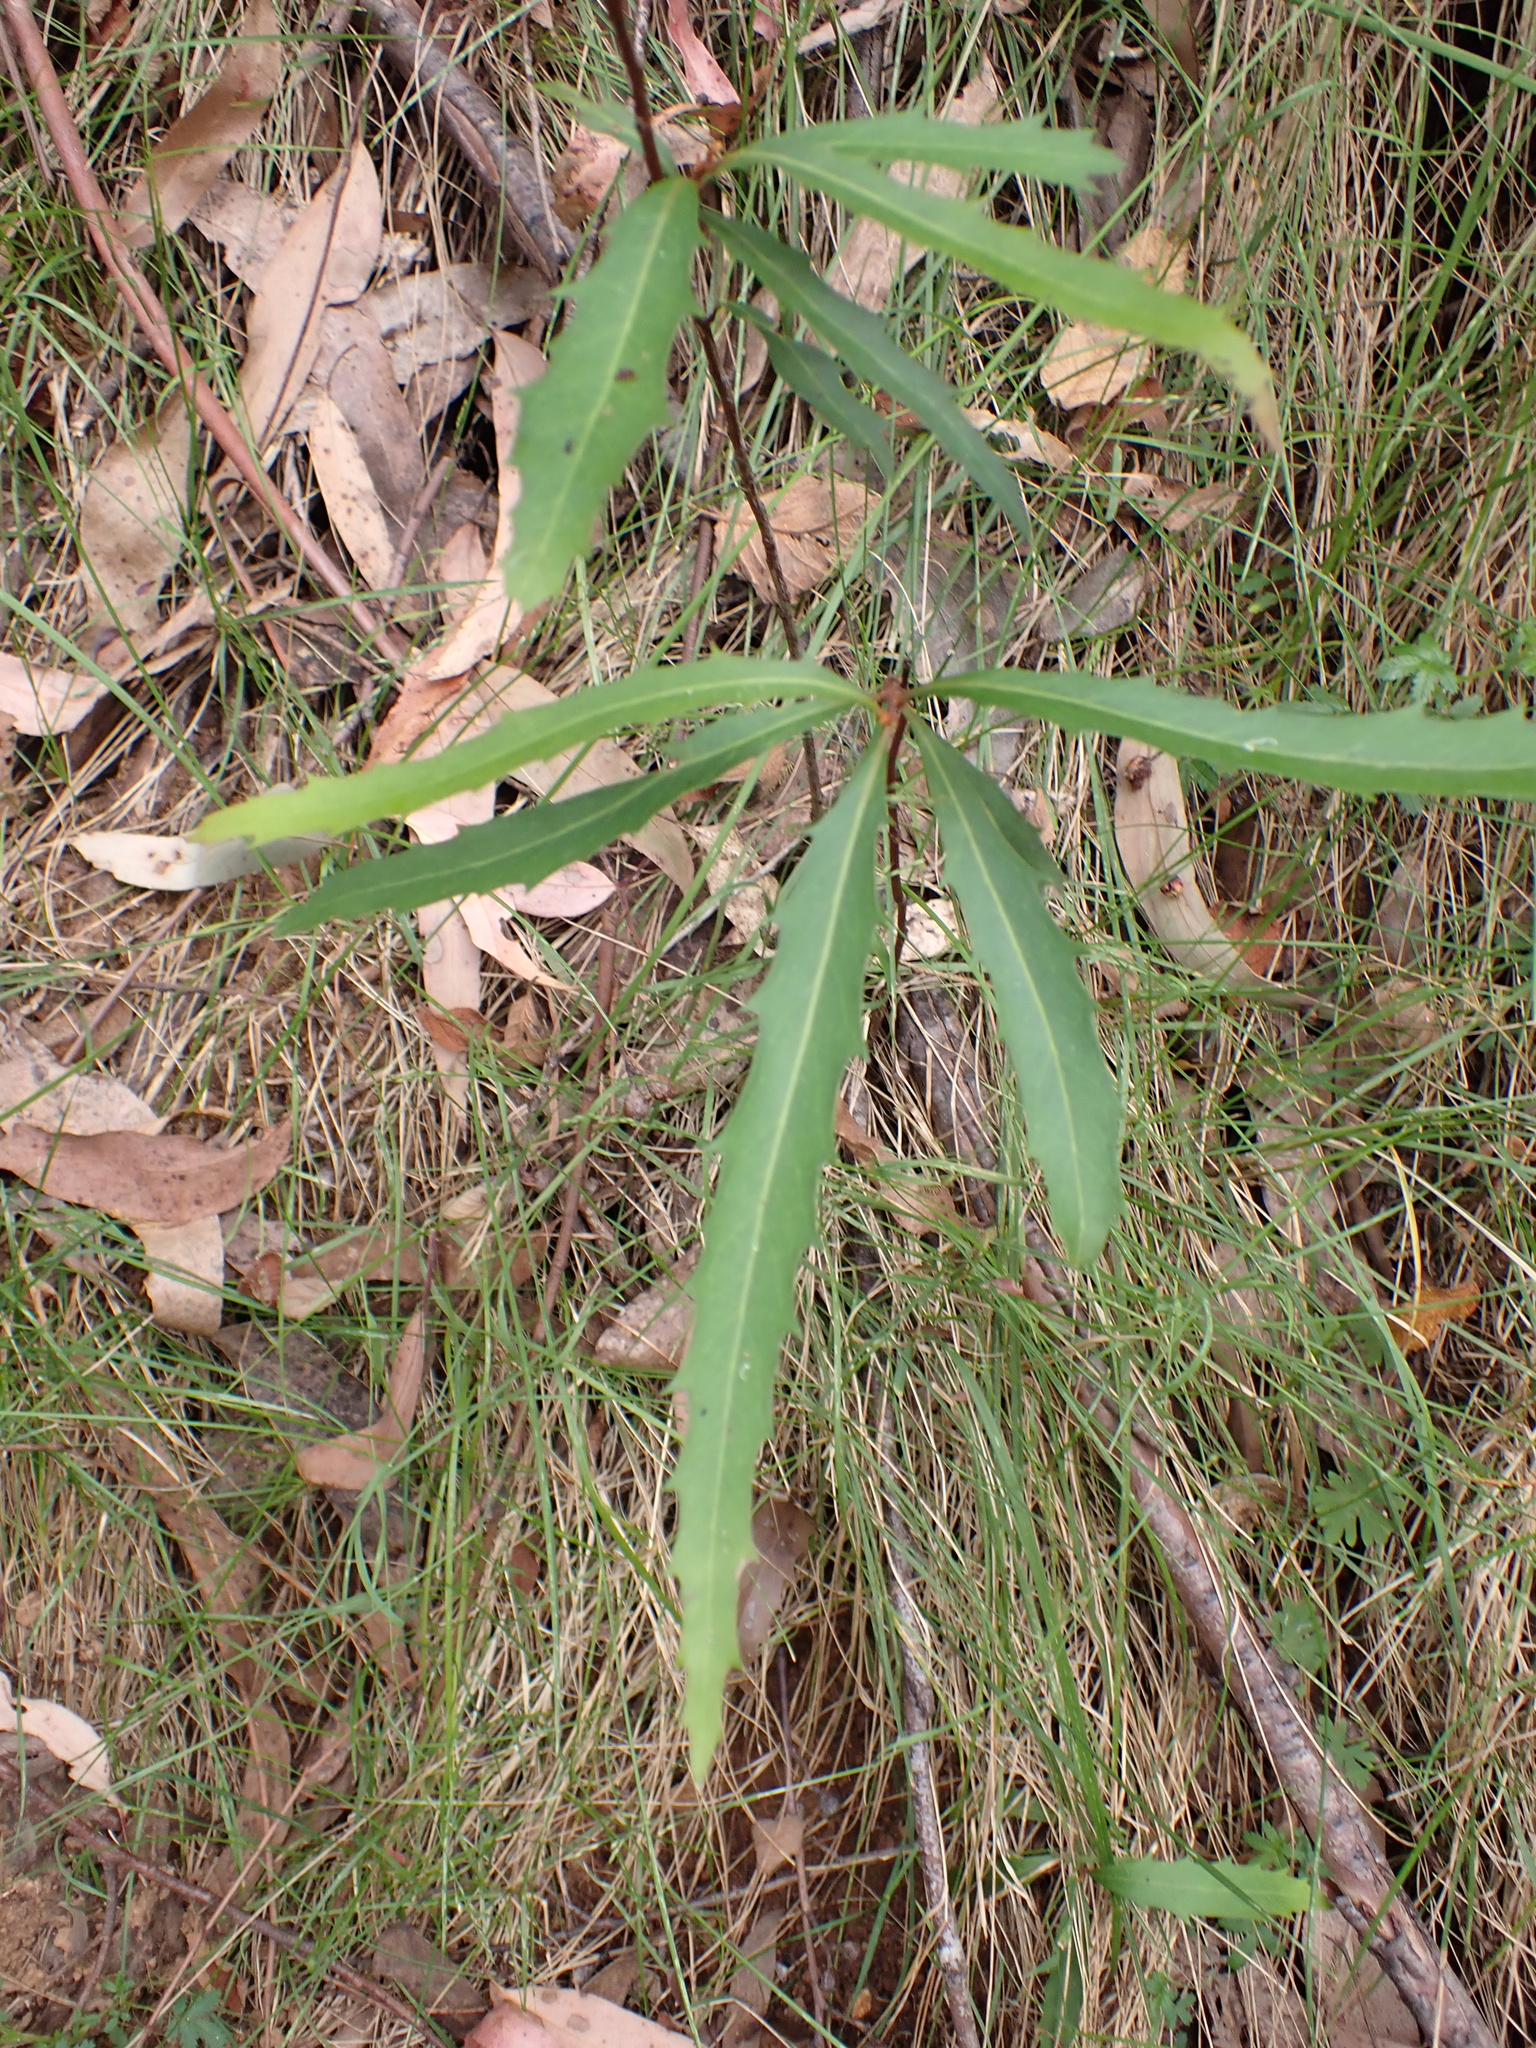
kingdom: Plantae
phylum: Tracheophyta
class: Magnoliopsida
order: Proteales
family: Proteaceae
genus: Lomatia
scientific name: Lomatia fraseri
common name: Forest lomatia
